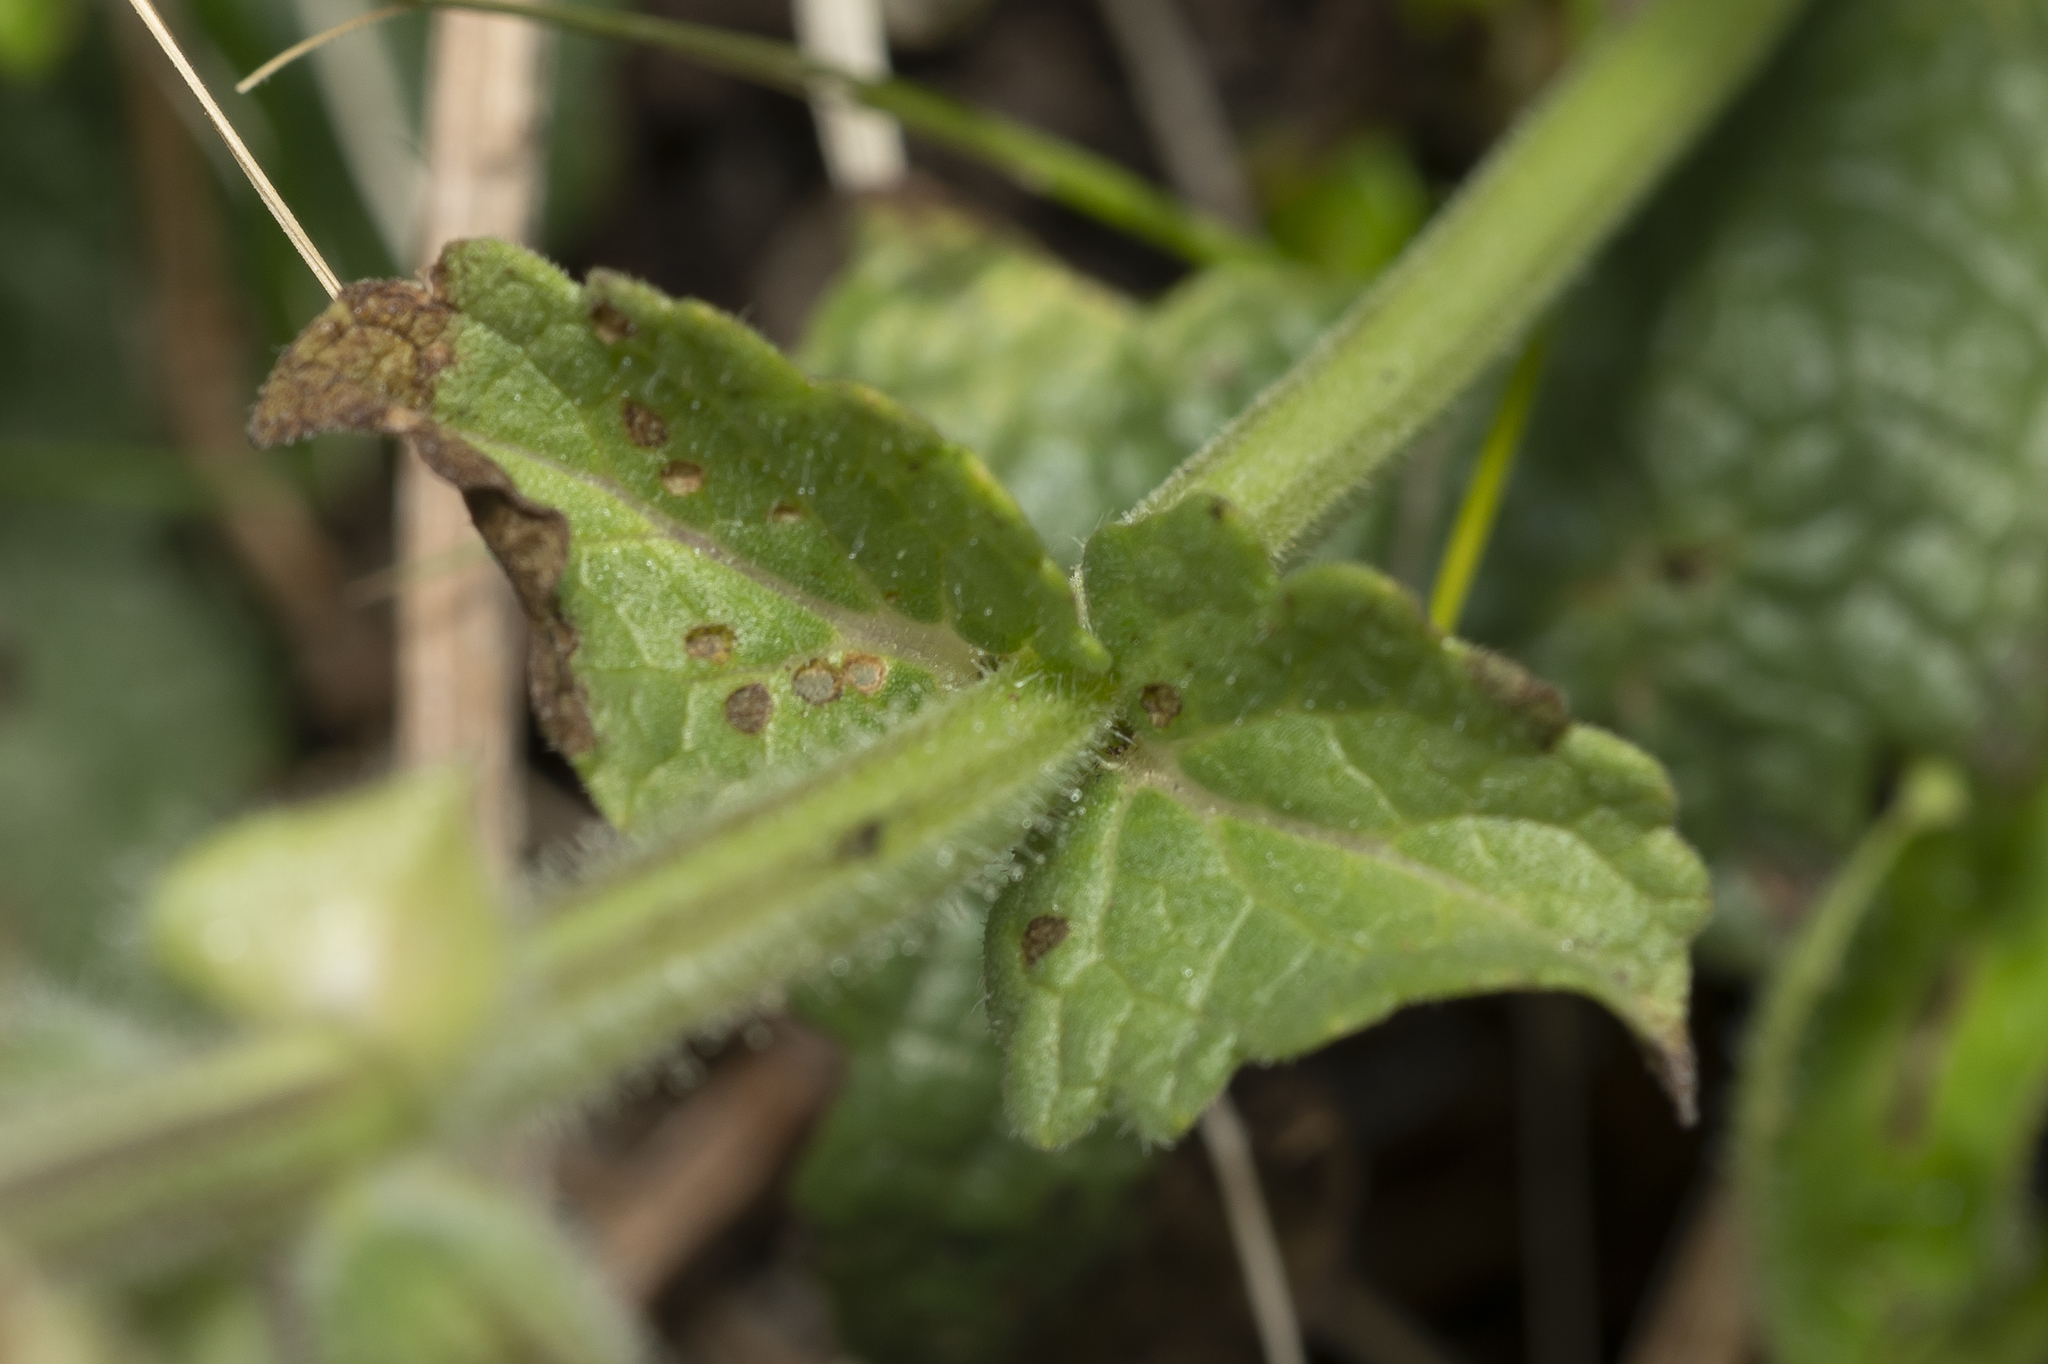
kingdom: Plantae
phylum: Tracheophyta
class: Magnoliopsida
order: Lamiales
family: Lamiaceae
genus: Salvia
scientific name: Salvia verbenaca
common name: Wild clary
